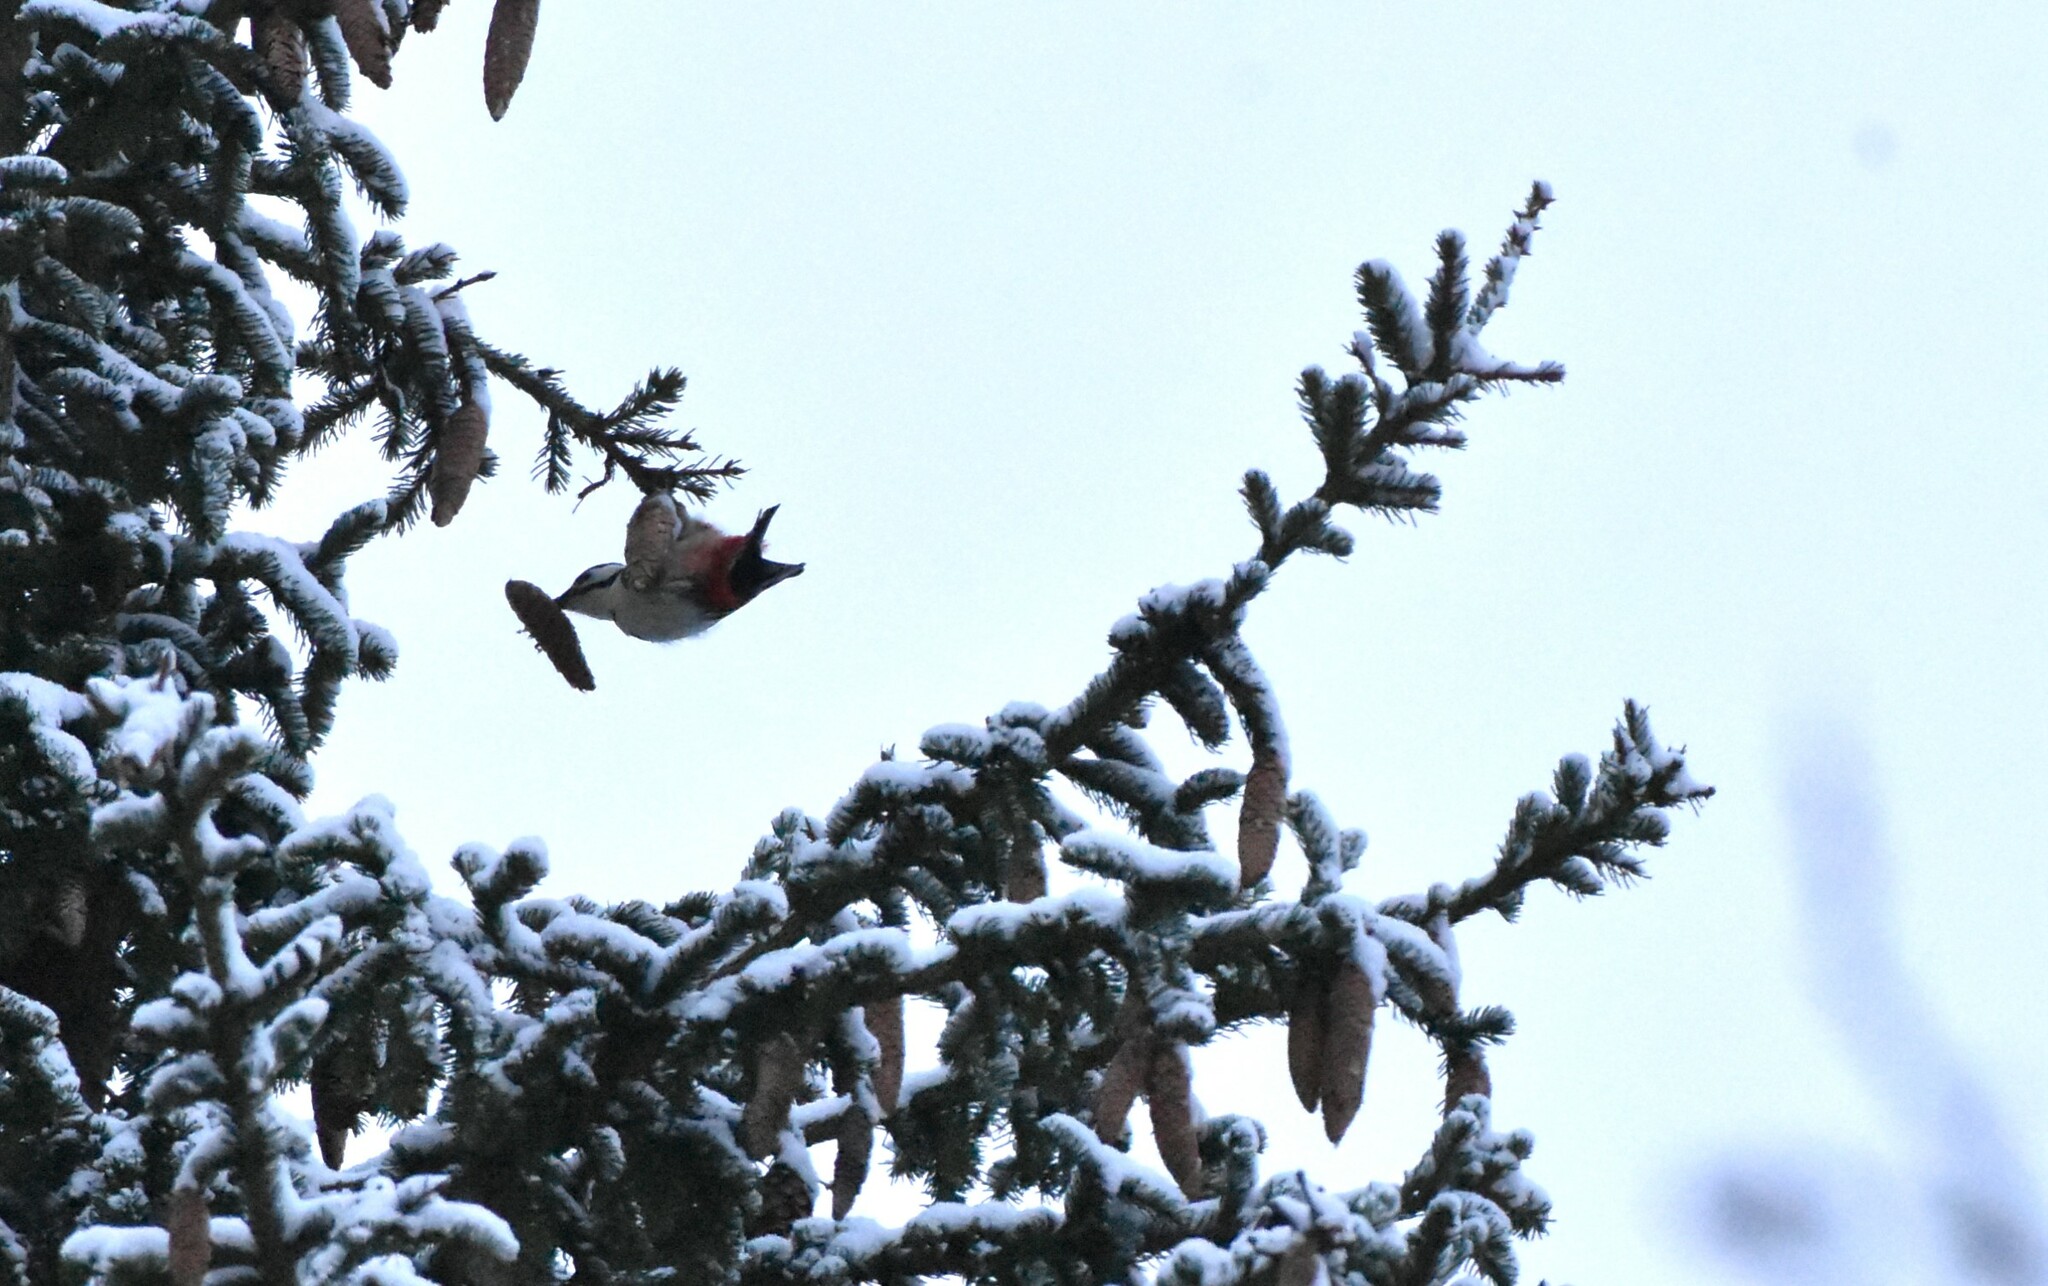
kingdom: Animalia
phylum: Chordata
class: Aves
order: Piciformes
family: Picidae
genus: Dendrocopos
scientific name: Dendrocopos major
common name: Great spotted woodpecker
